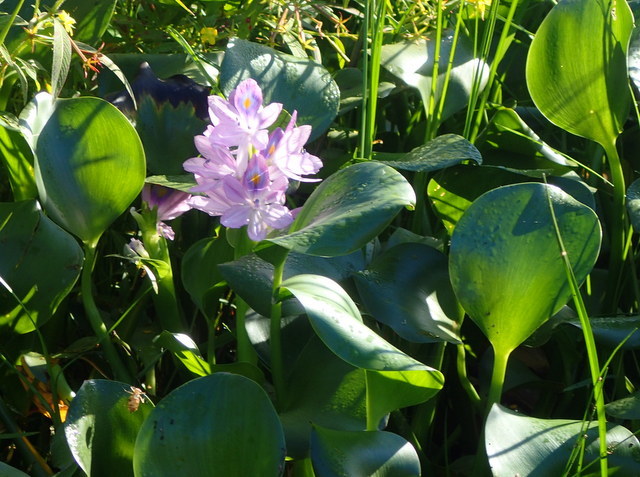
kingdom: Plantae
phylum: Tracheophyta
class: Liliopsida
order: Commelinales
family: Pontederiaceae
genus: Pontederia
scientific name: Pontederia crassipes
